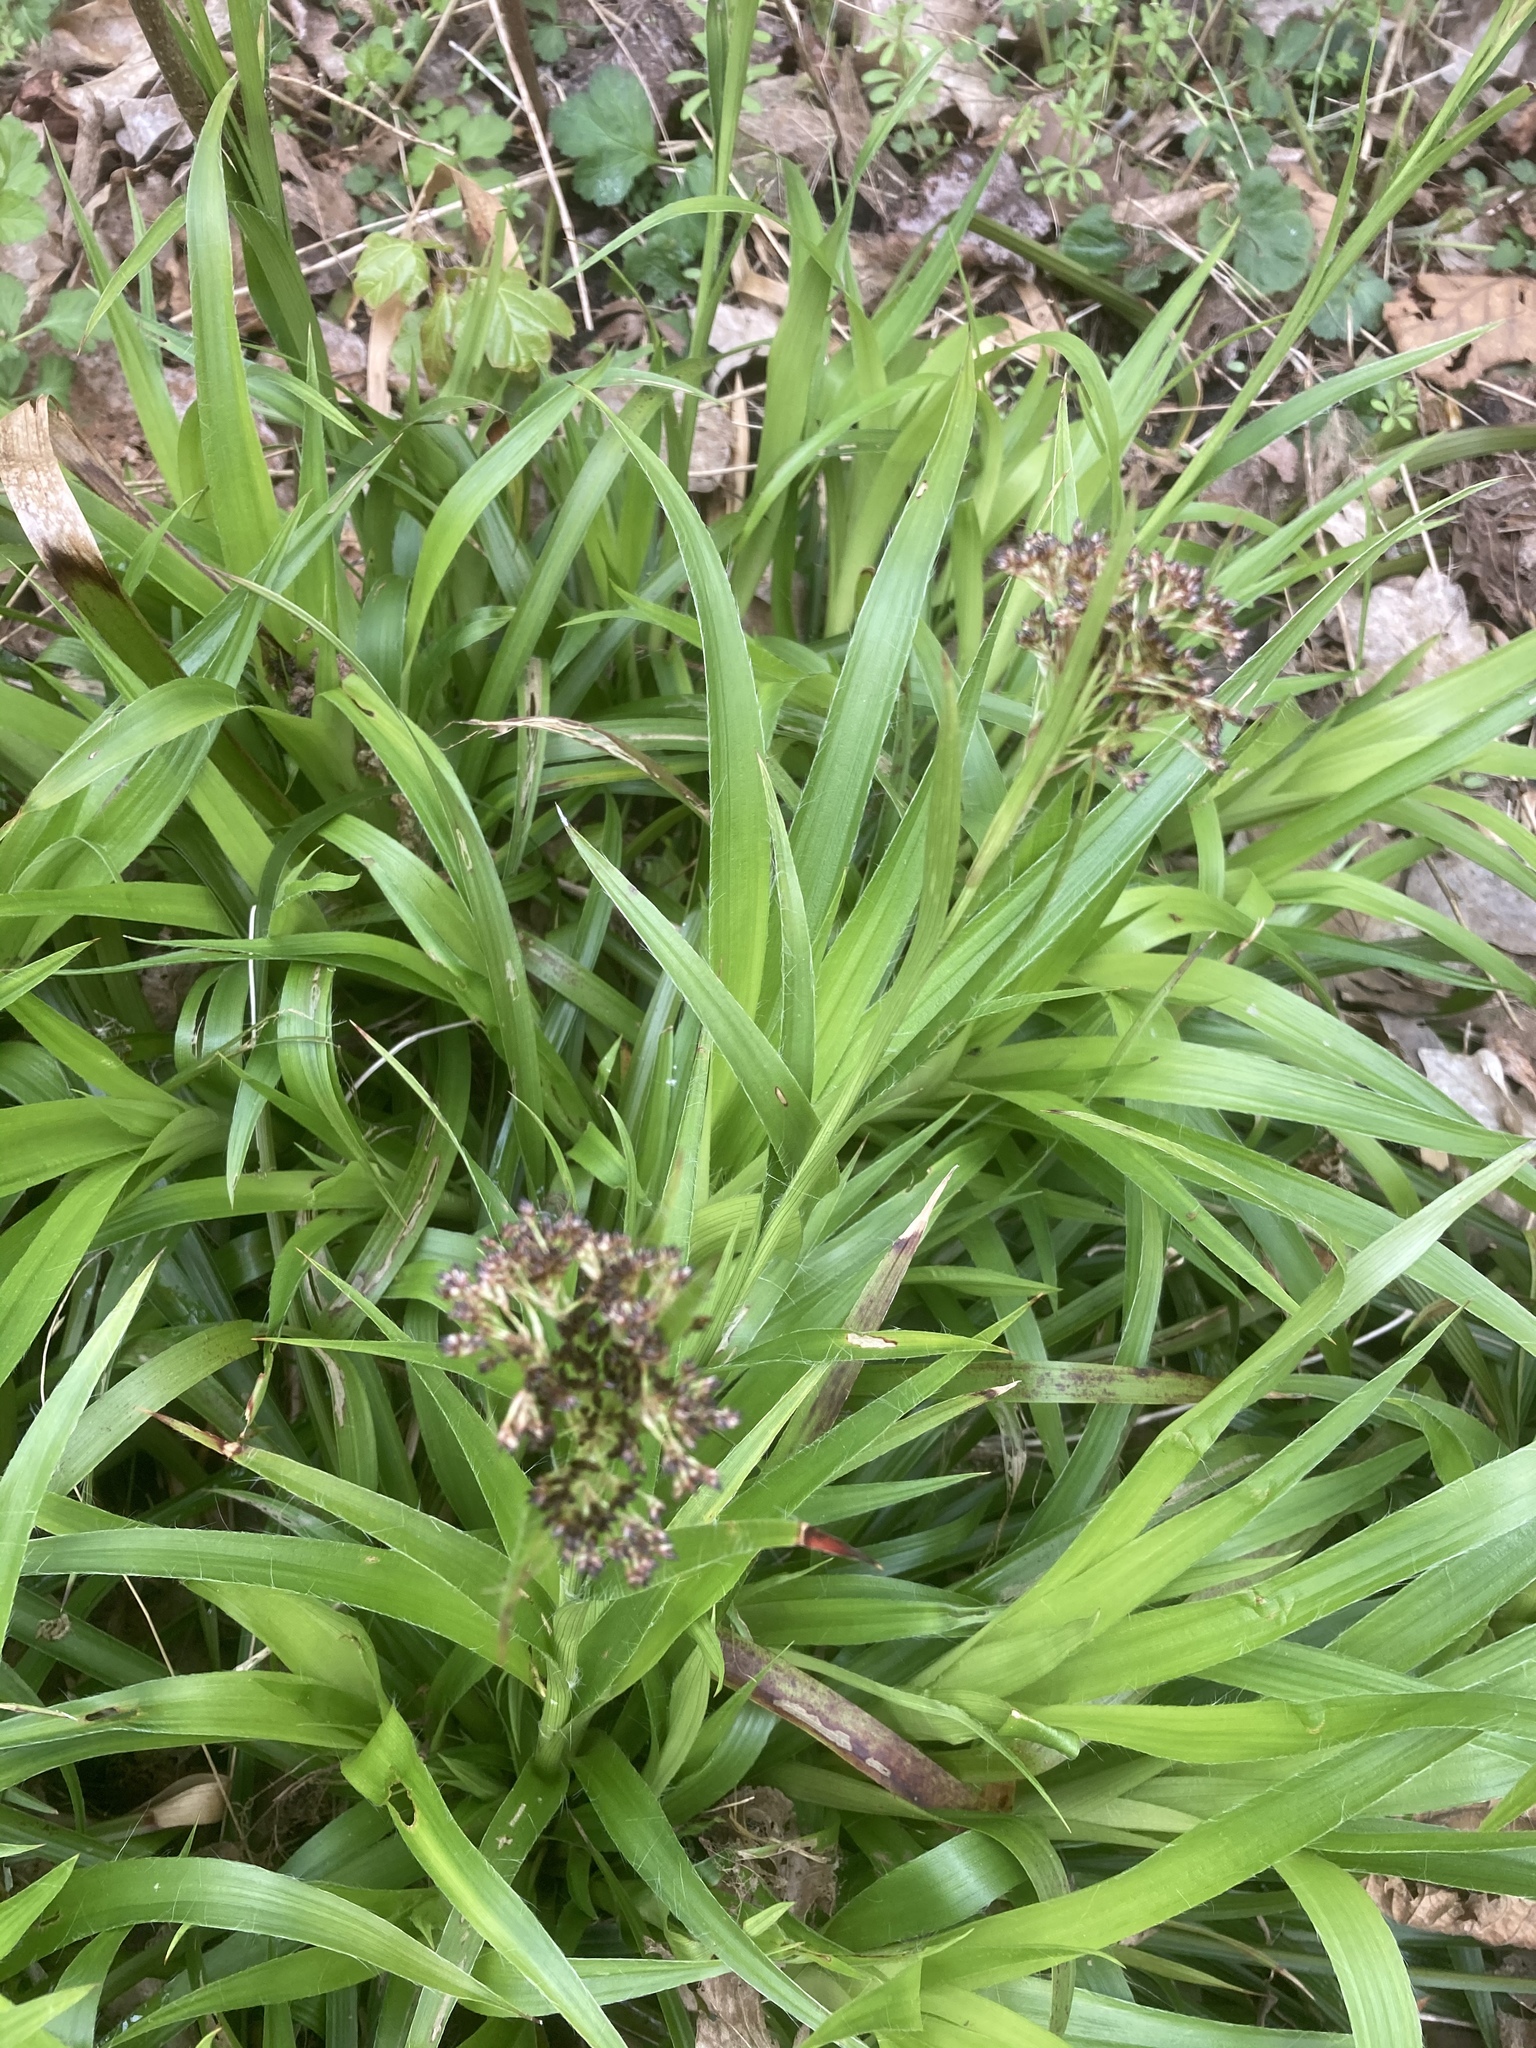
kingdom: Plantae
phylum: Tracheophyta
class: Liliopsida
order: Poales
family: Juncaceae
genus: Luzula
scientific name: Luzula sylvatica
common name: Great wood-rush
